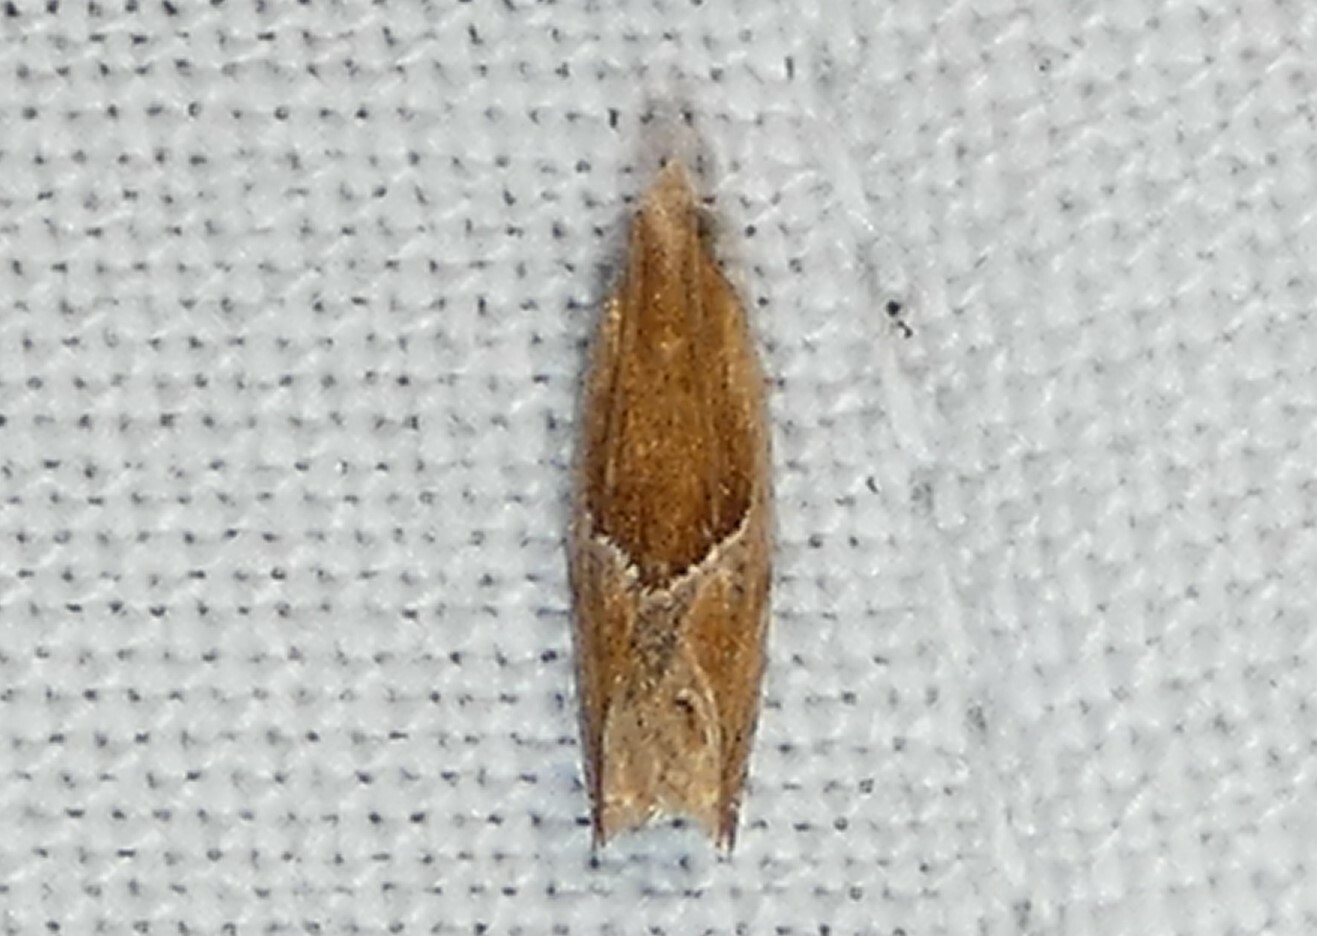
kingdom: Animalia
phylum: Arthropoda
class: Insecta
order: Lepidoptera
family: Tortricidae
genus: Ancylis
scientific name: Ancylis comptana
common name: Little roller
